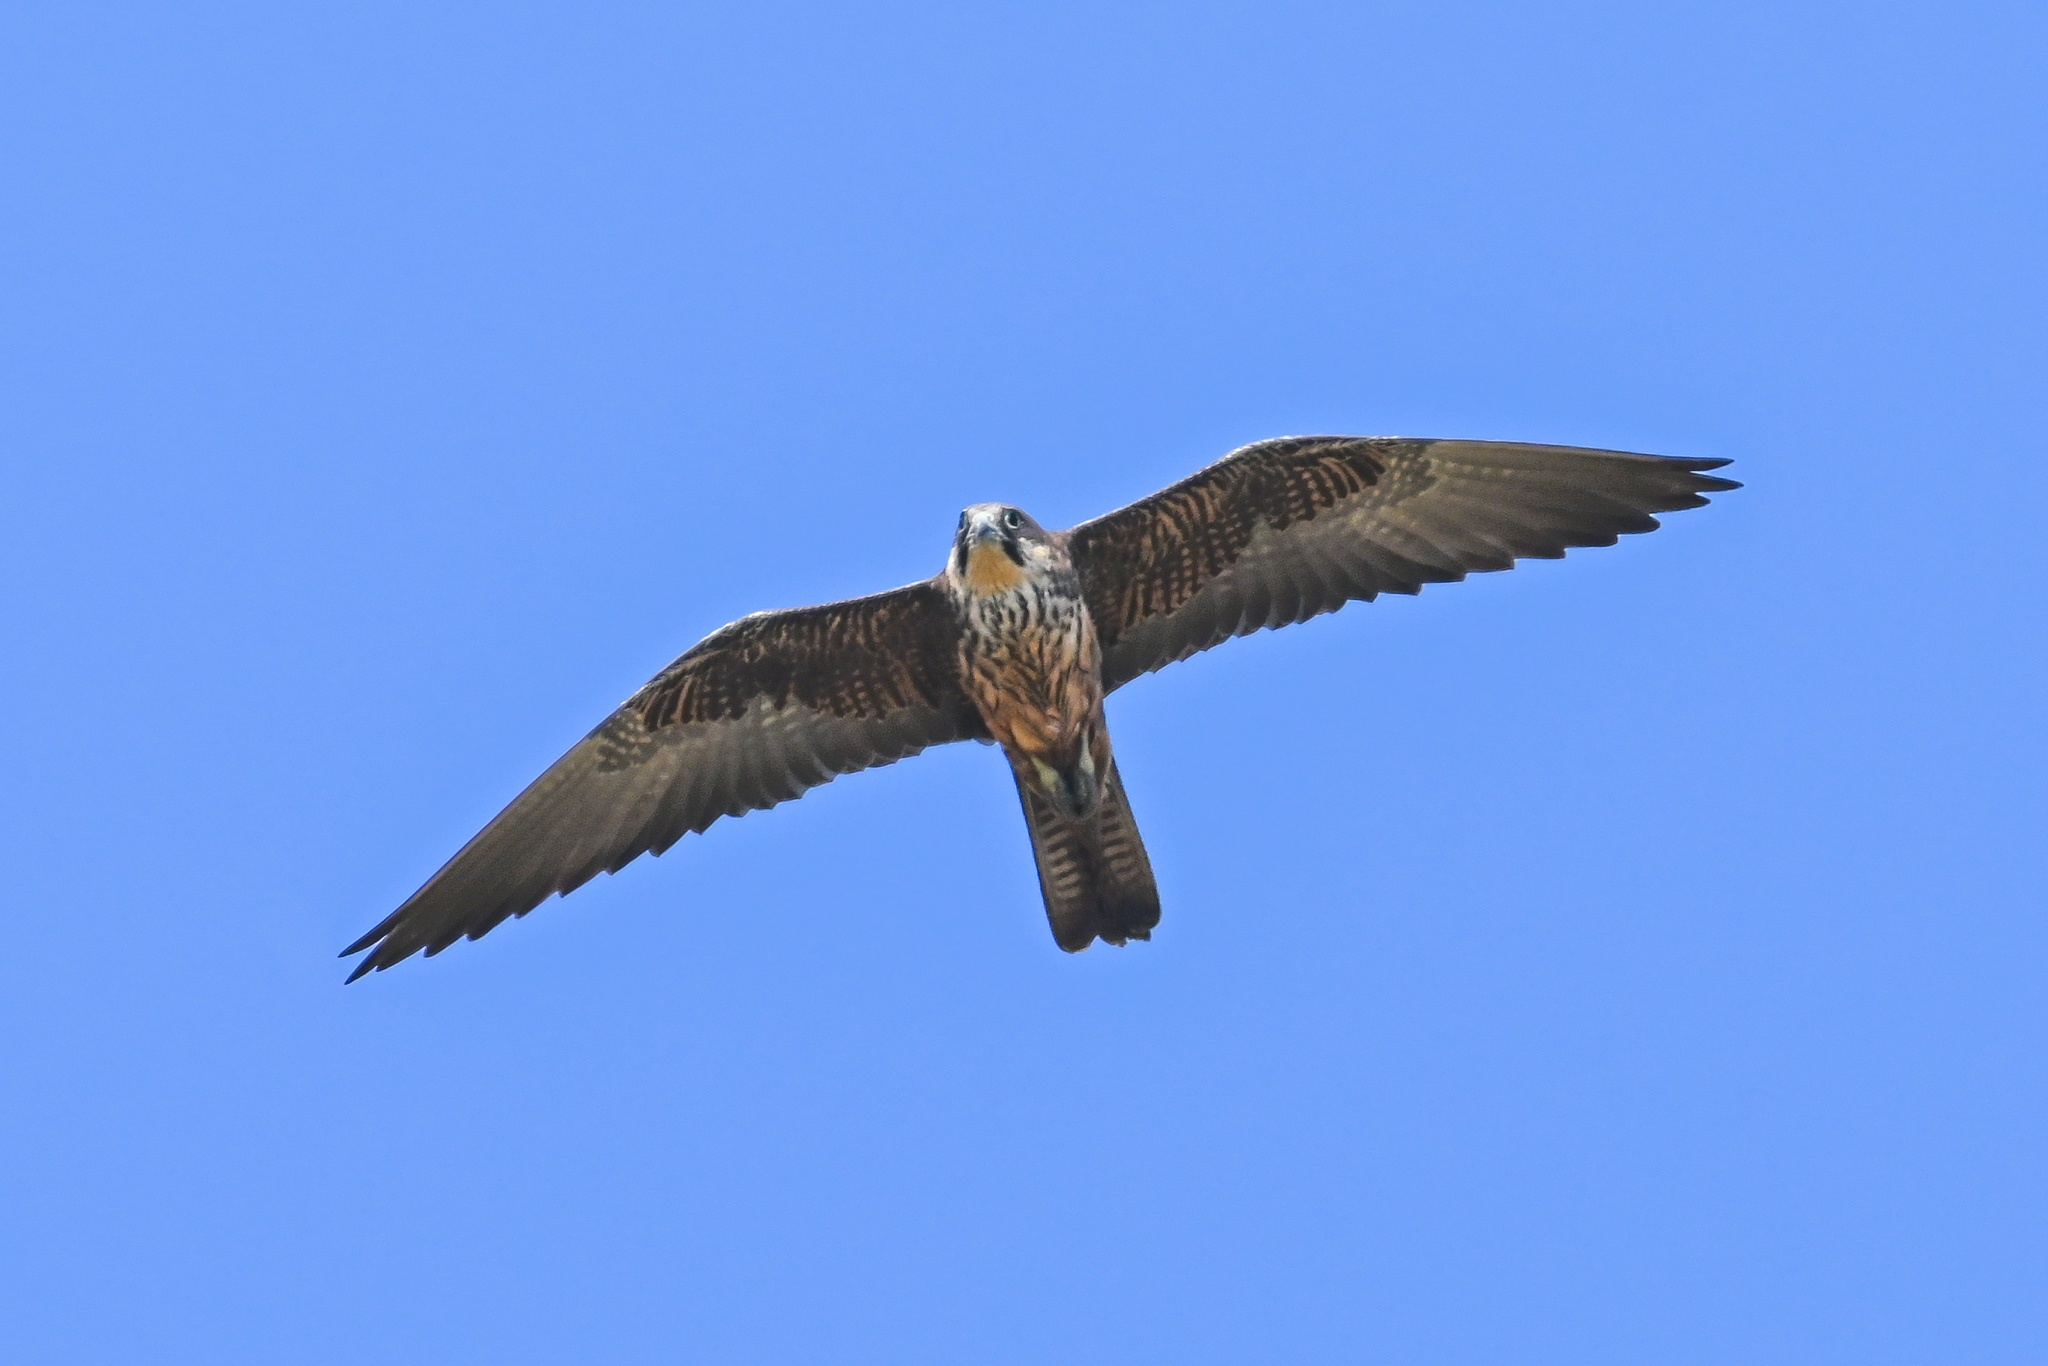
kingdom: Animalia
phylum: Chordata
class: Aves
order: Falconiformes
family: Falconidae
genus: Falco
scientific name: Falco eleonorae
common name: Eleonora's falcon
